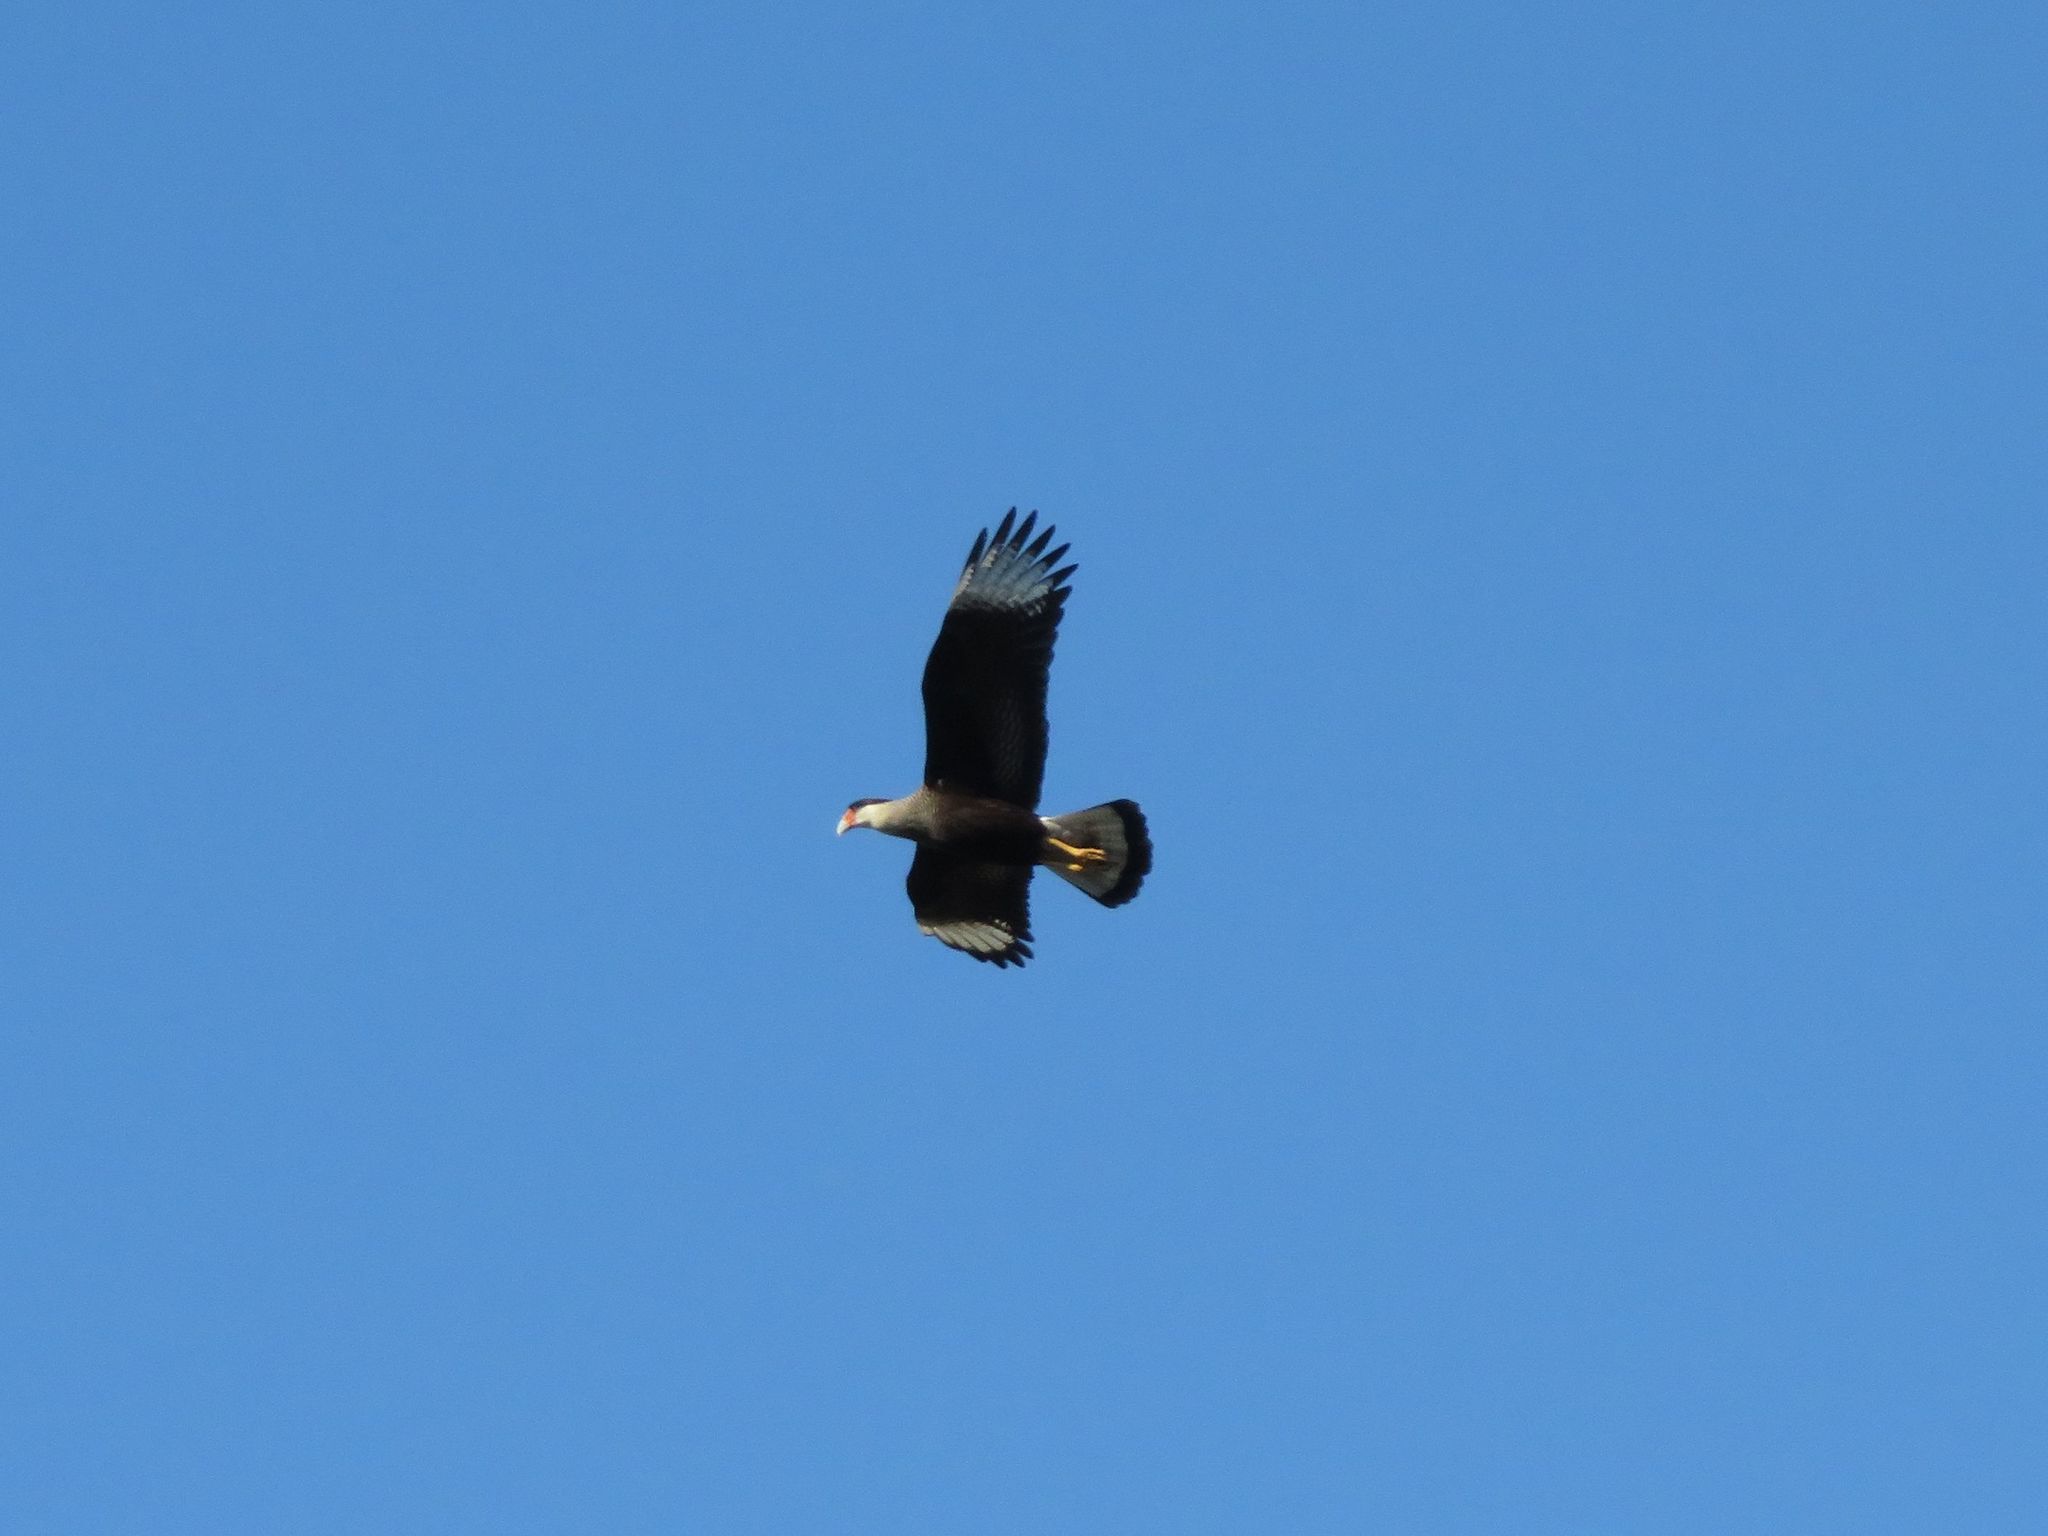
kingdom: Animalia
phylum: Chordata
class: Aves
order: Falconiformes
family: Falconidae
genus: Caracara
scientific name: Caracara plancus
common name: Southern caracara
